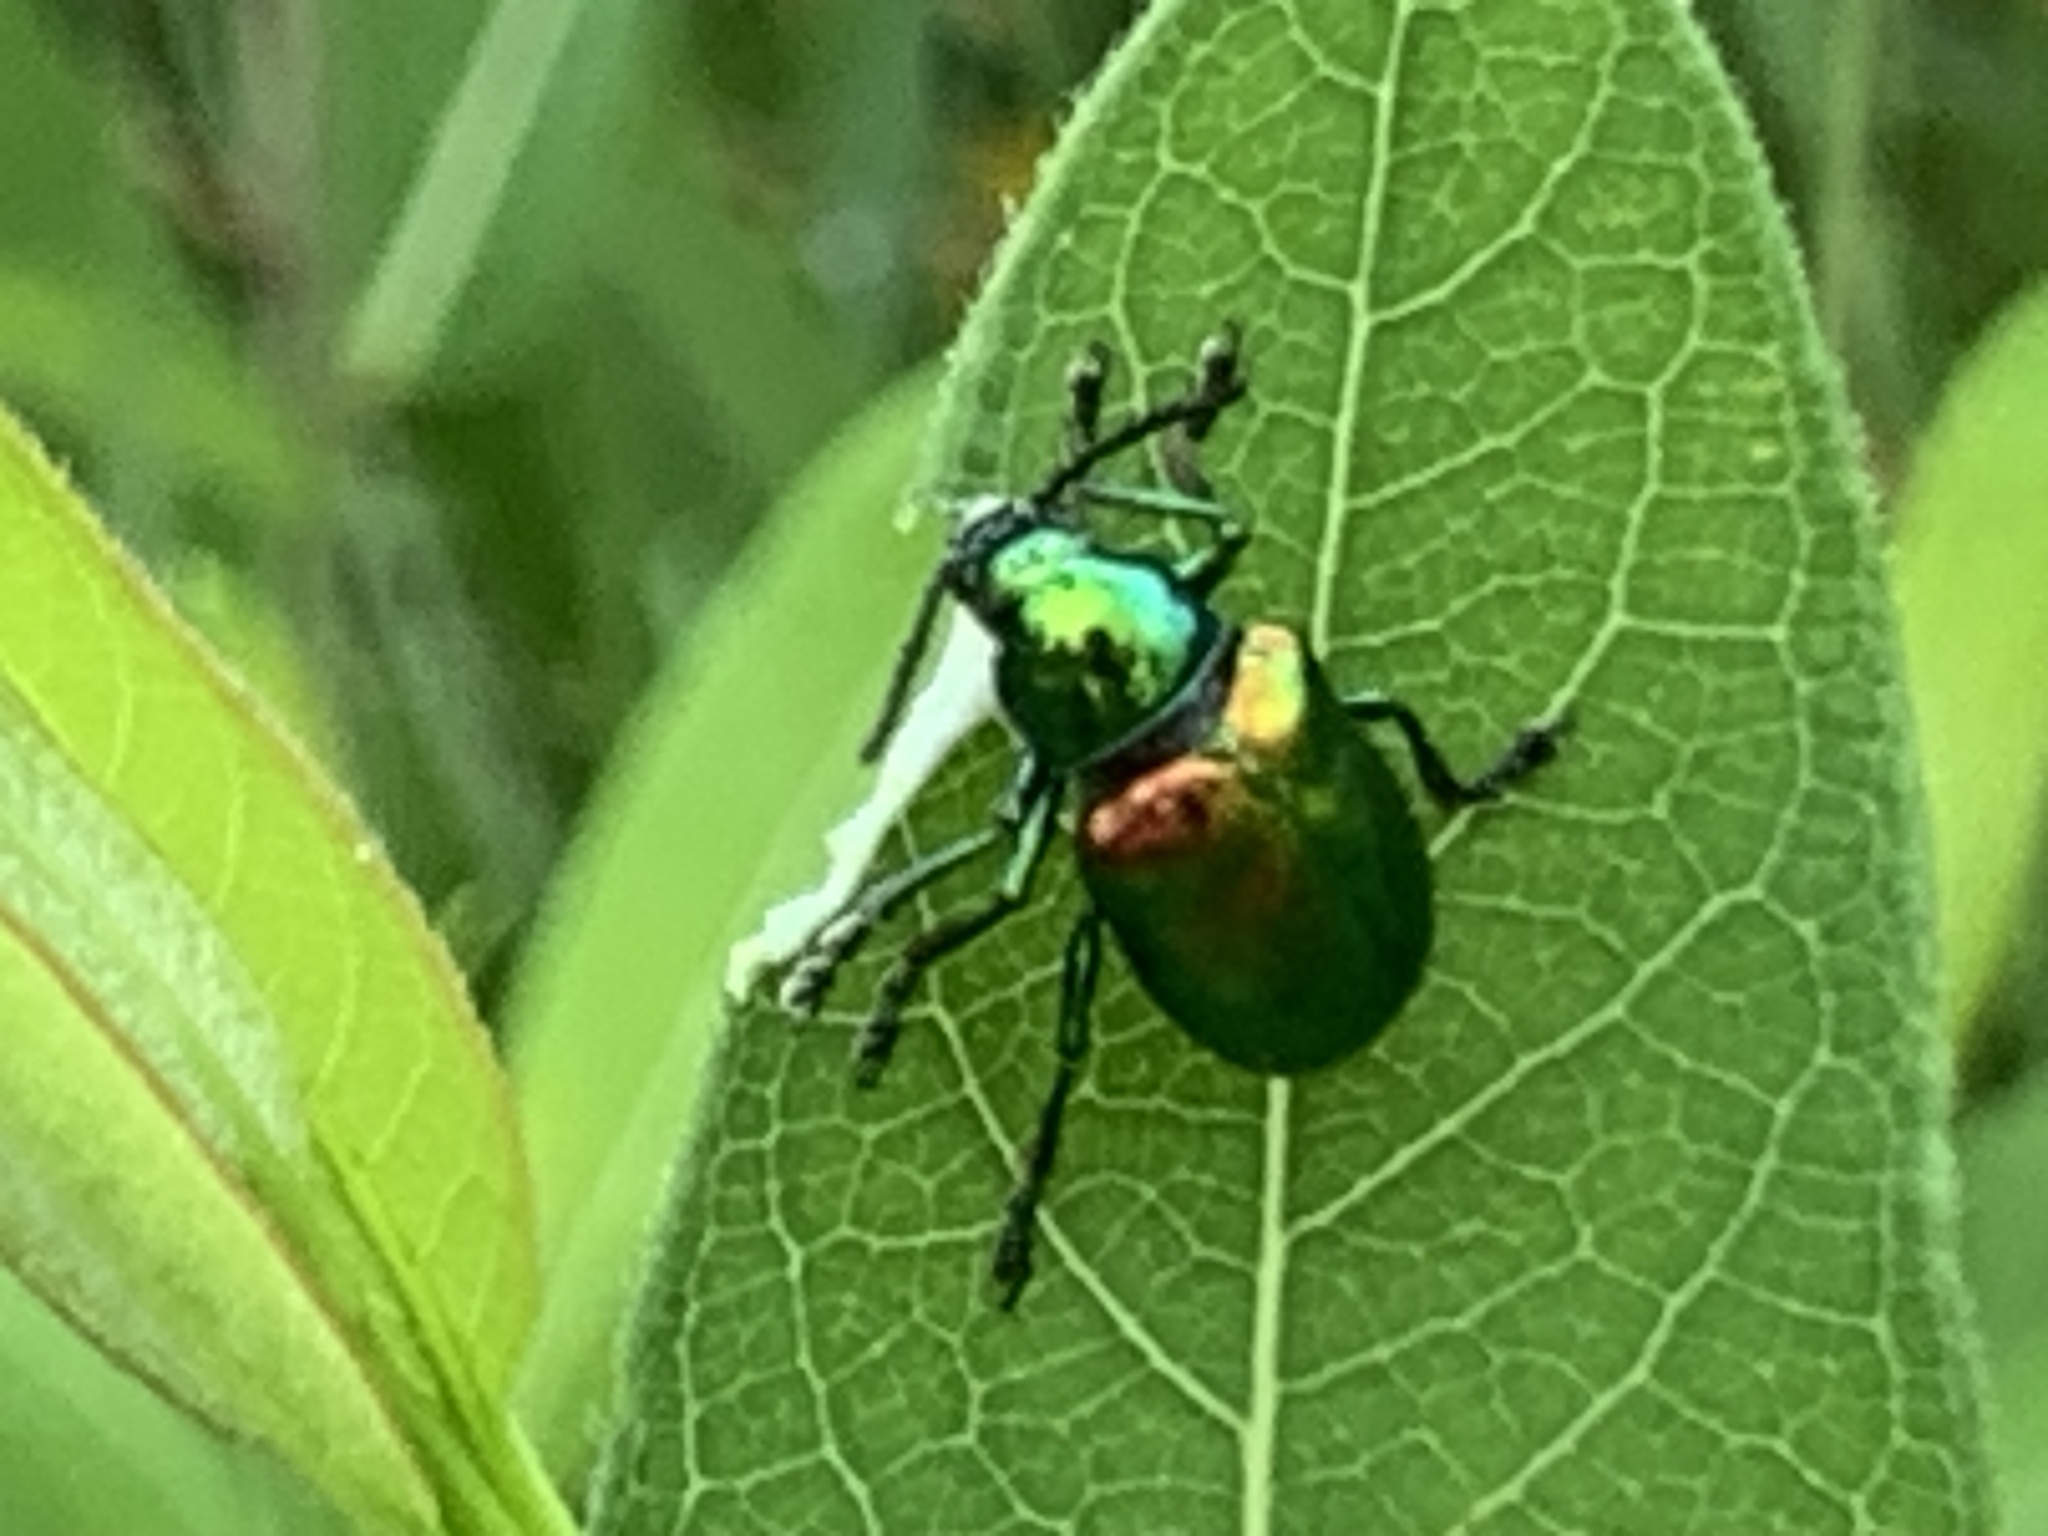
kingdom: Animalia
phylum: Arthropoda
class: Insecta
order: Coleoptera
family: Chrysomelidae
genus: Chrysochus
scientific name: Chrysochus auratus
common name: Dogbane leaf beetle
